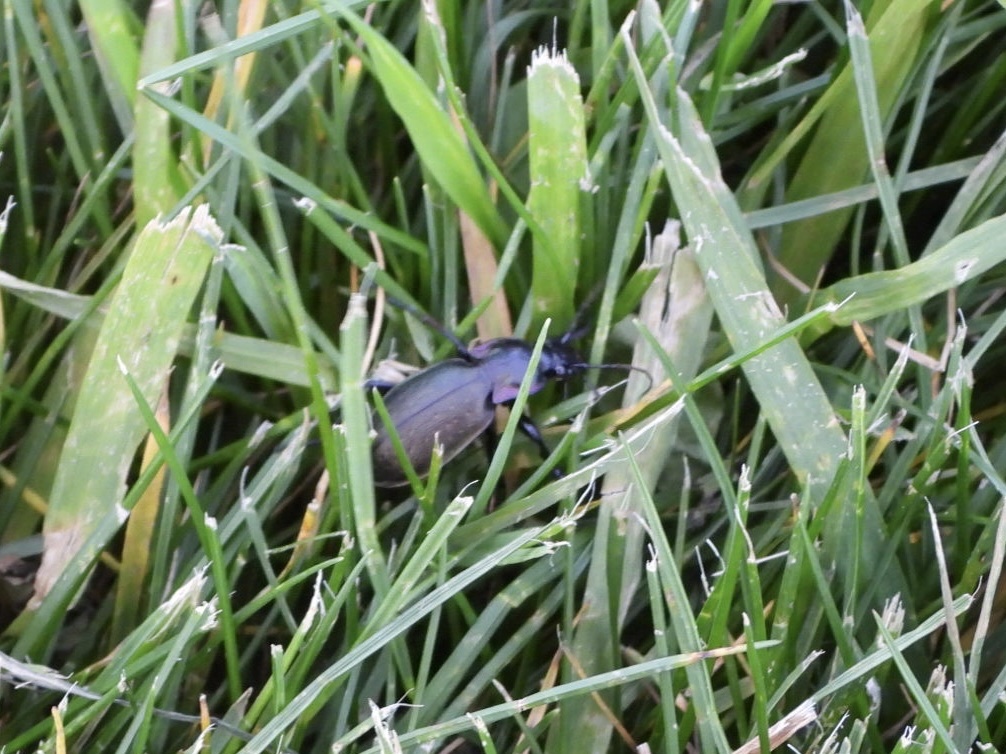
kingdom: Animalia
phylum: Arthropoda
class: Insecta
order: Coleoptera
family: Carabidae
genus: Carabus
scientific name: Carabus nemoralis
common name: European ground beetle
